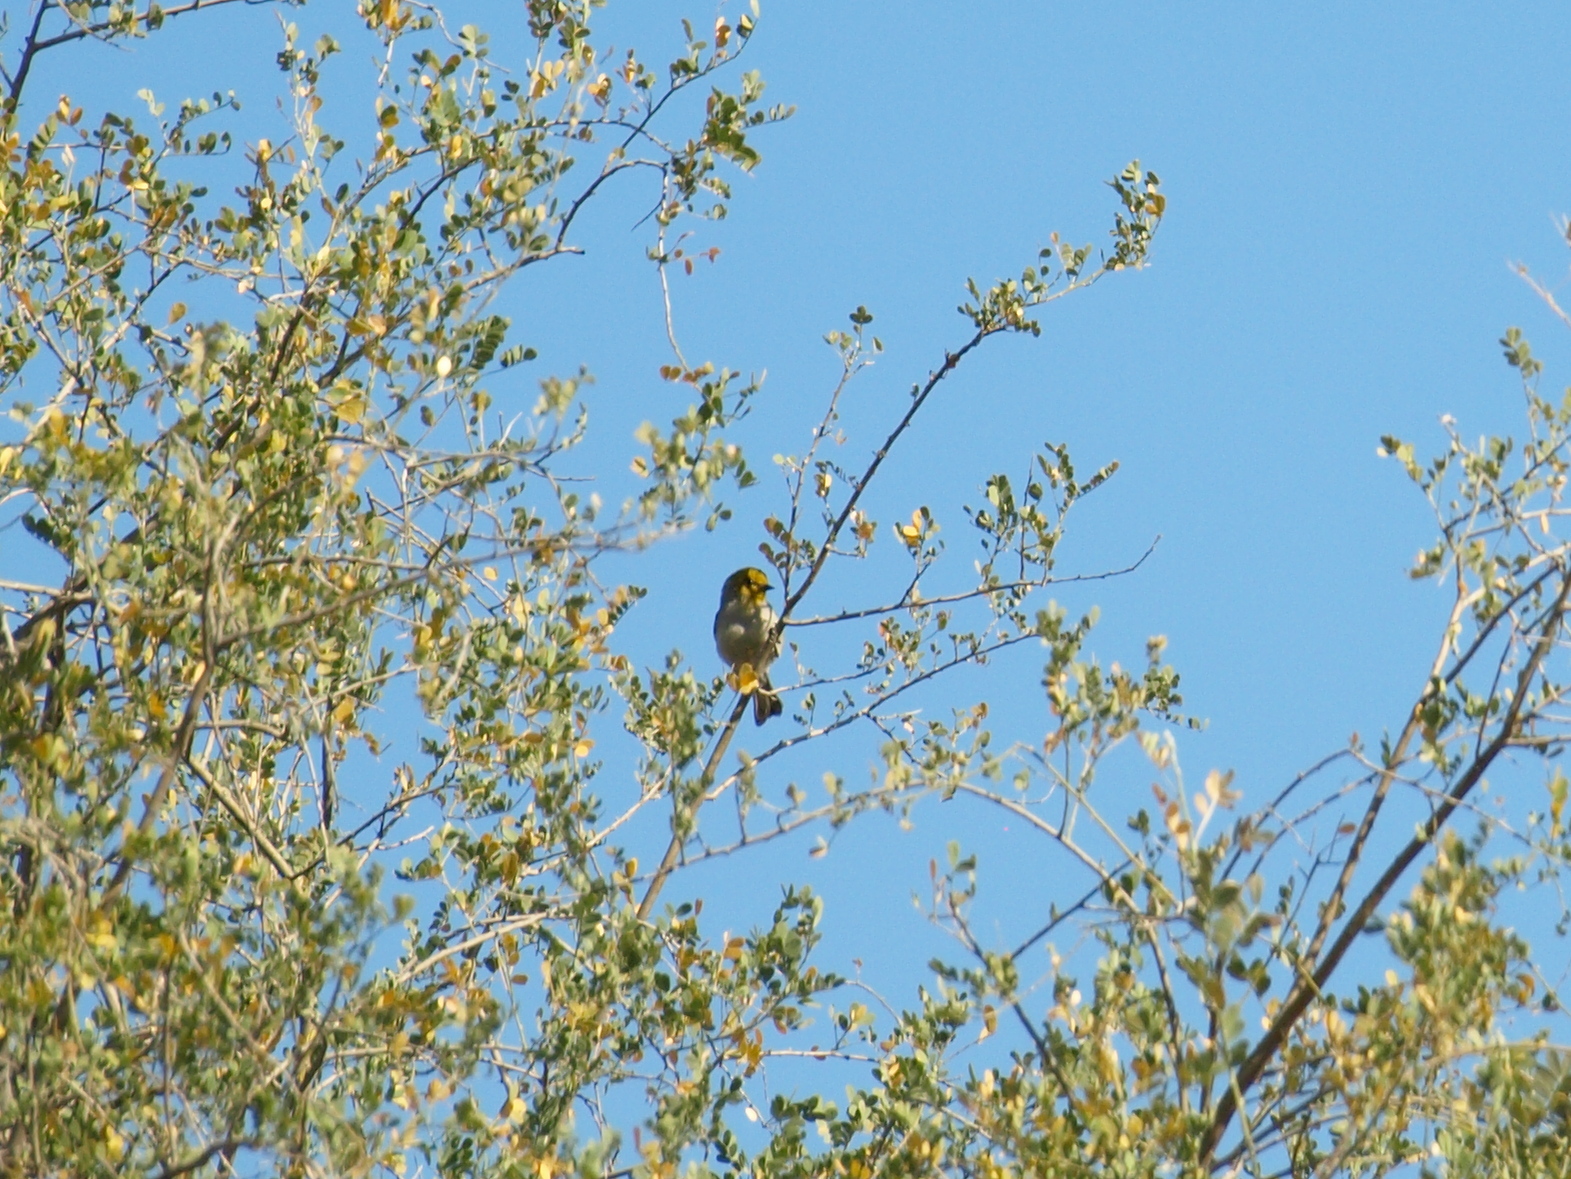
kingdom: Animalia
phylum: Chordata
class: Aves
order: Passeriformes
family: Remizidae
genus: Auriparus
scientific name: Auriparus flaviceps
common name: Verdin
